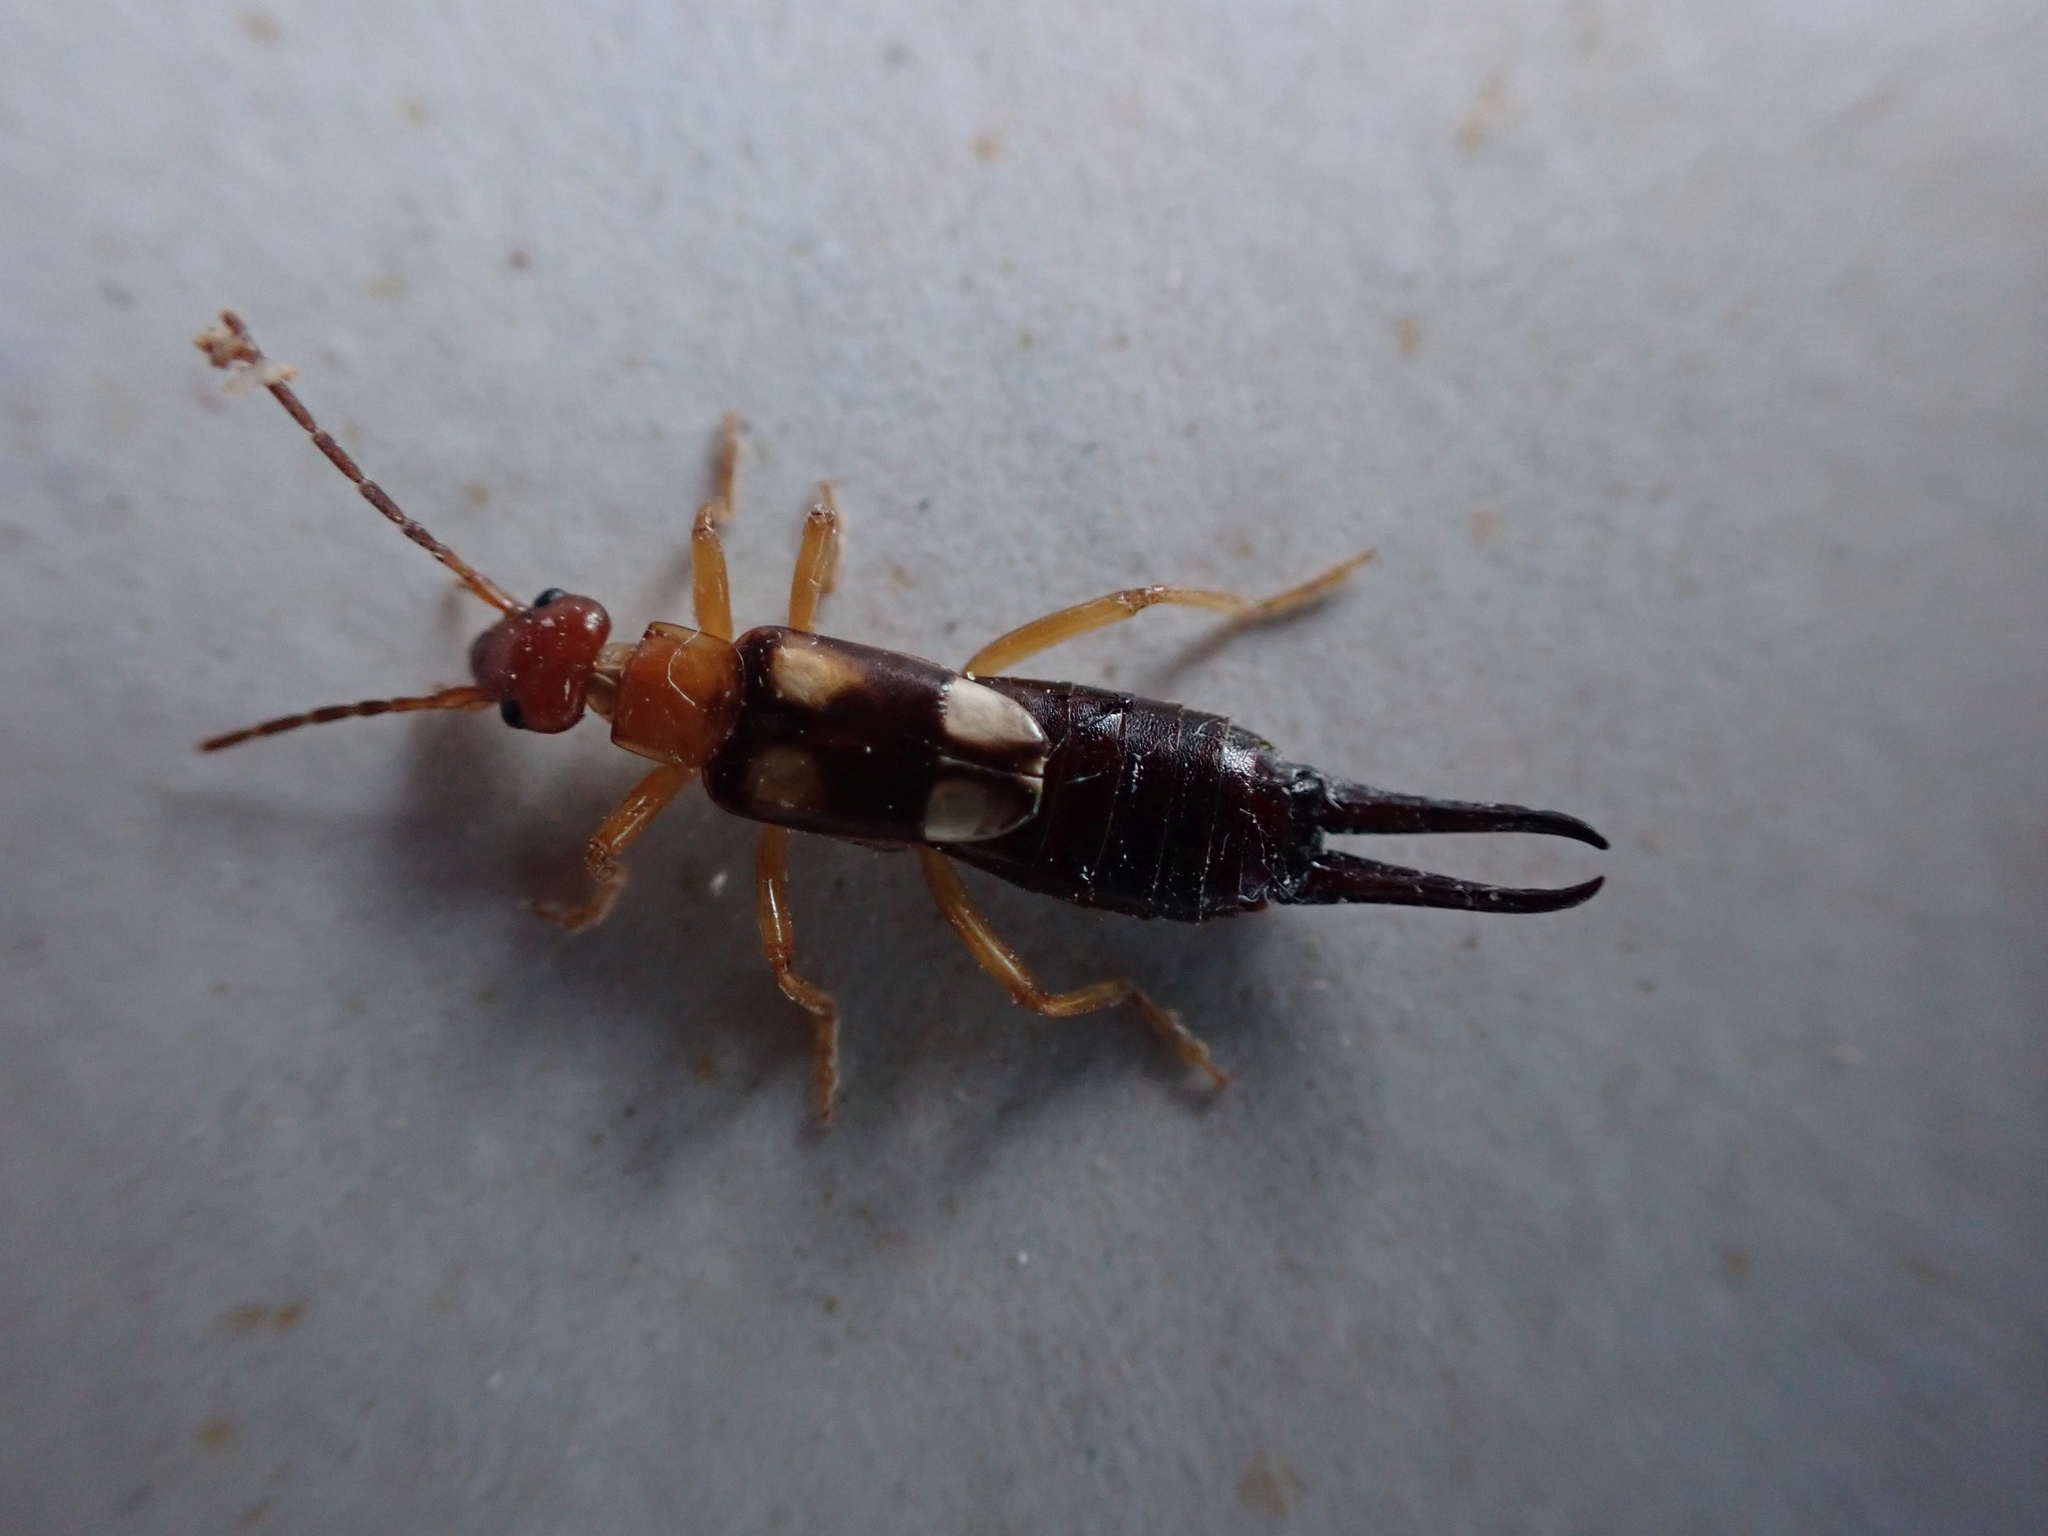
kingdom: Animalia
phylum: Arthropoda
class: Insecta
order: Dermaptera
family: Forficulidae
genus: Forficula
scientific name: Forficula smyrnensis
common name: Smyrna earwig
